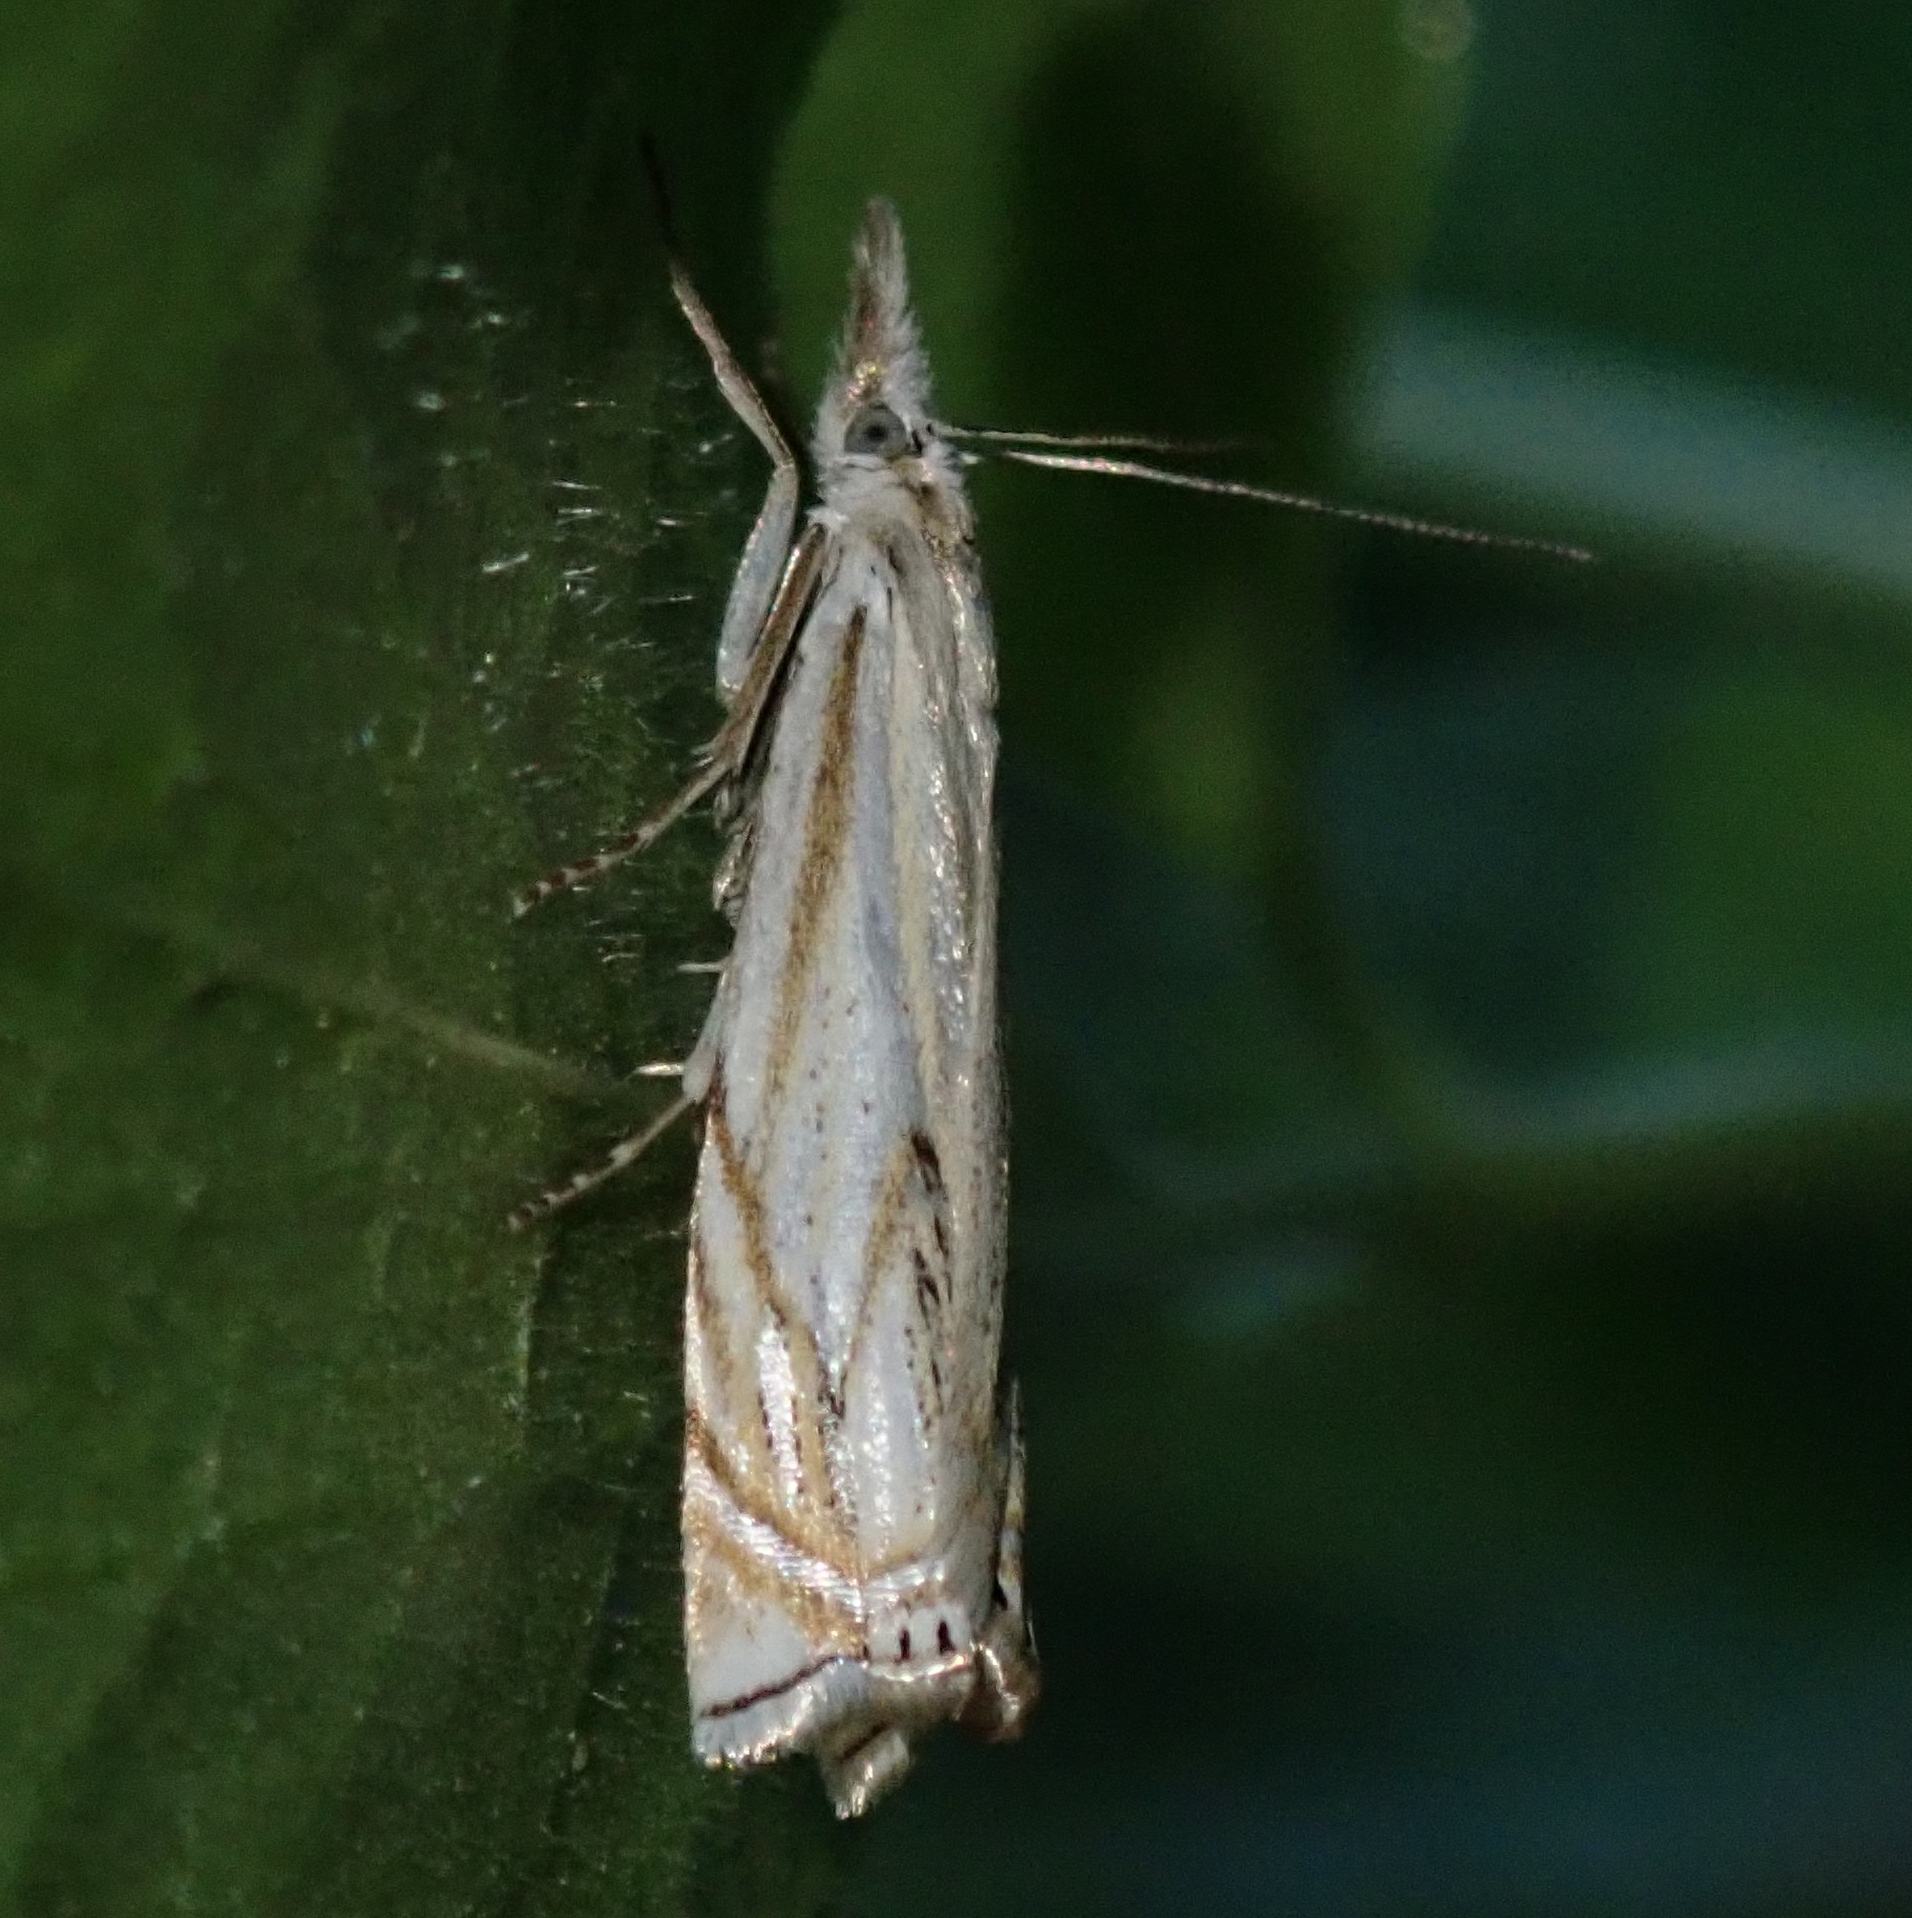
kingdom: Animalia
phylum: Arthropoda
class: Insecta
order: Lepidoptera
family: Crambidae
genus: Crambus
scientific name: Crambus nemorella
